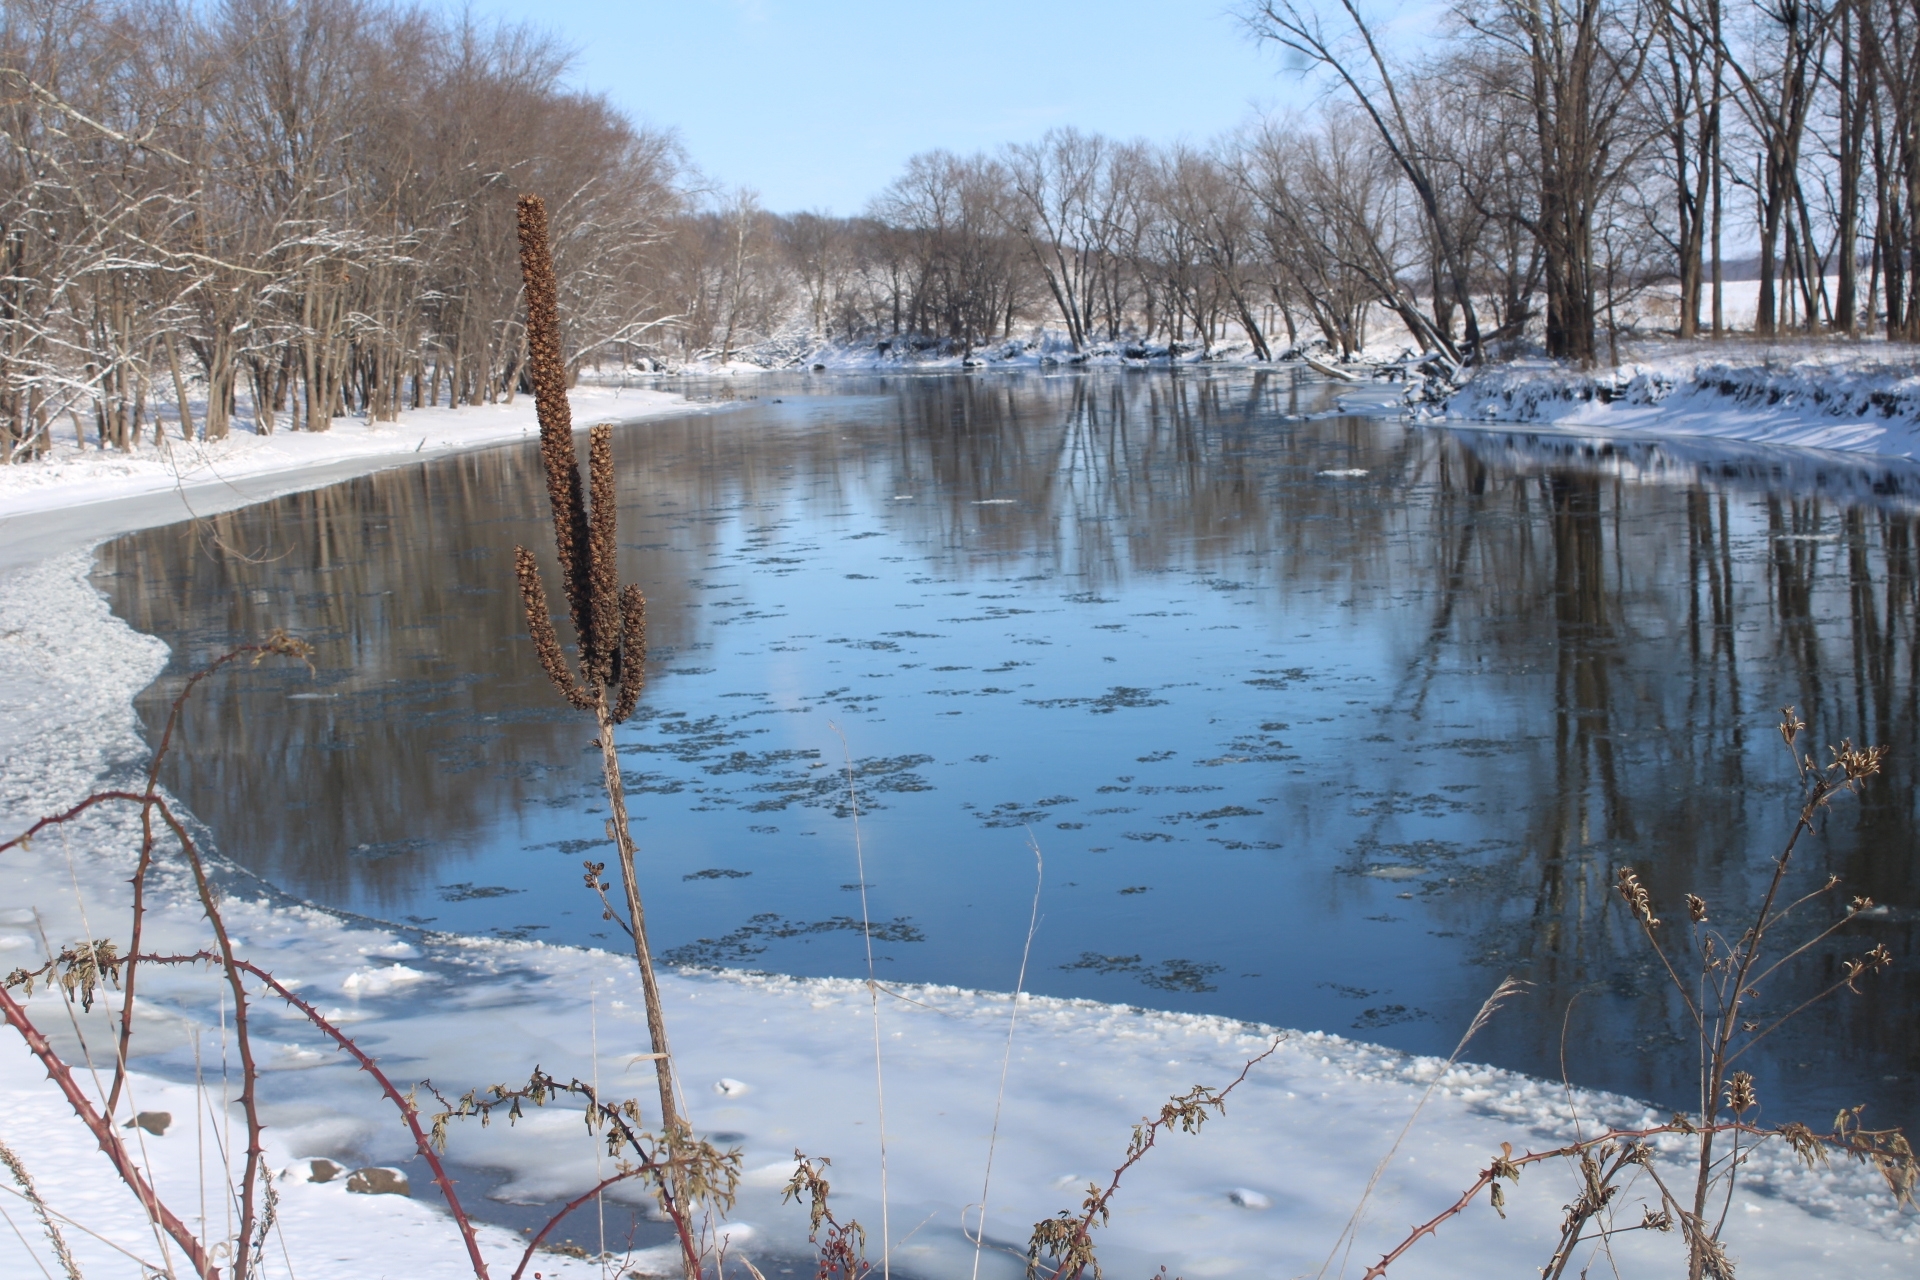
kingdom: Plantae
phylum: Tracheophyta
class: Magnoliopsida
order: Lamiales
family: Scrophulariaceae
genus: Verbascum
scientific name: Verbascum thapsus
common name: Common mullein
